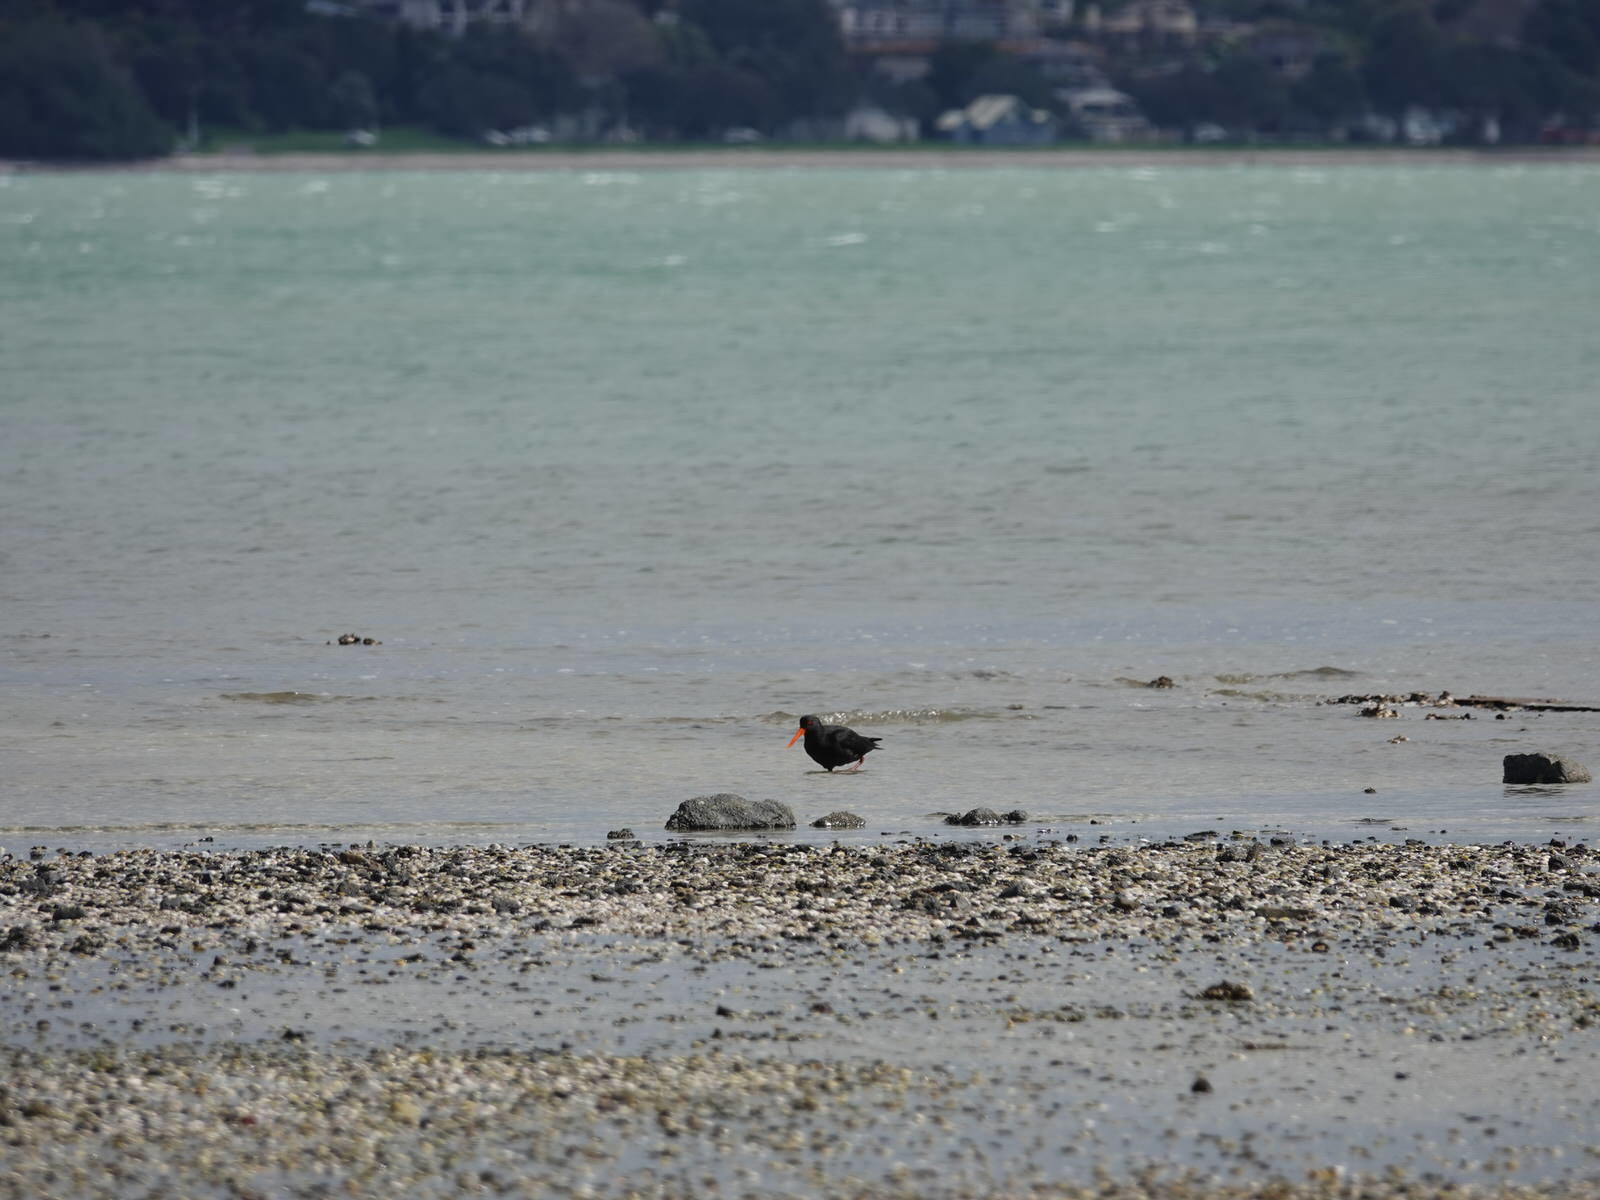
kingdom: Animalia
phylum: Chordata
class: Aves
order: Charadriiformes
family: Haematopodidae
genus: Haematopus
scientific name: Haematopus unicolor
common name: Variable oystercatcher
